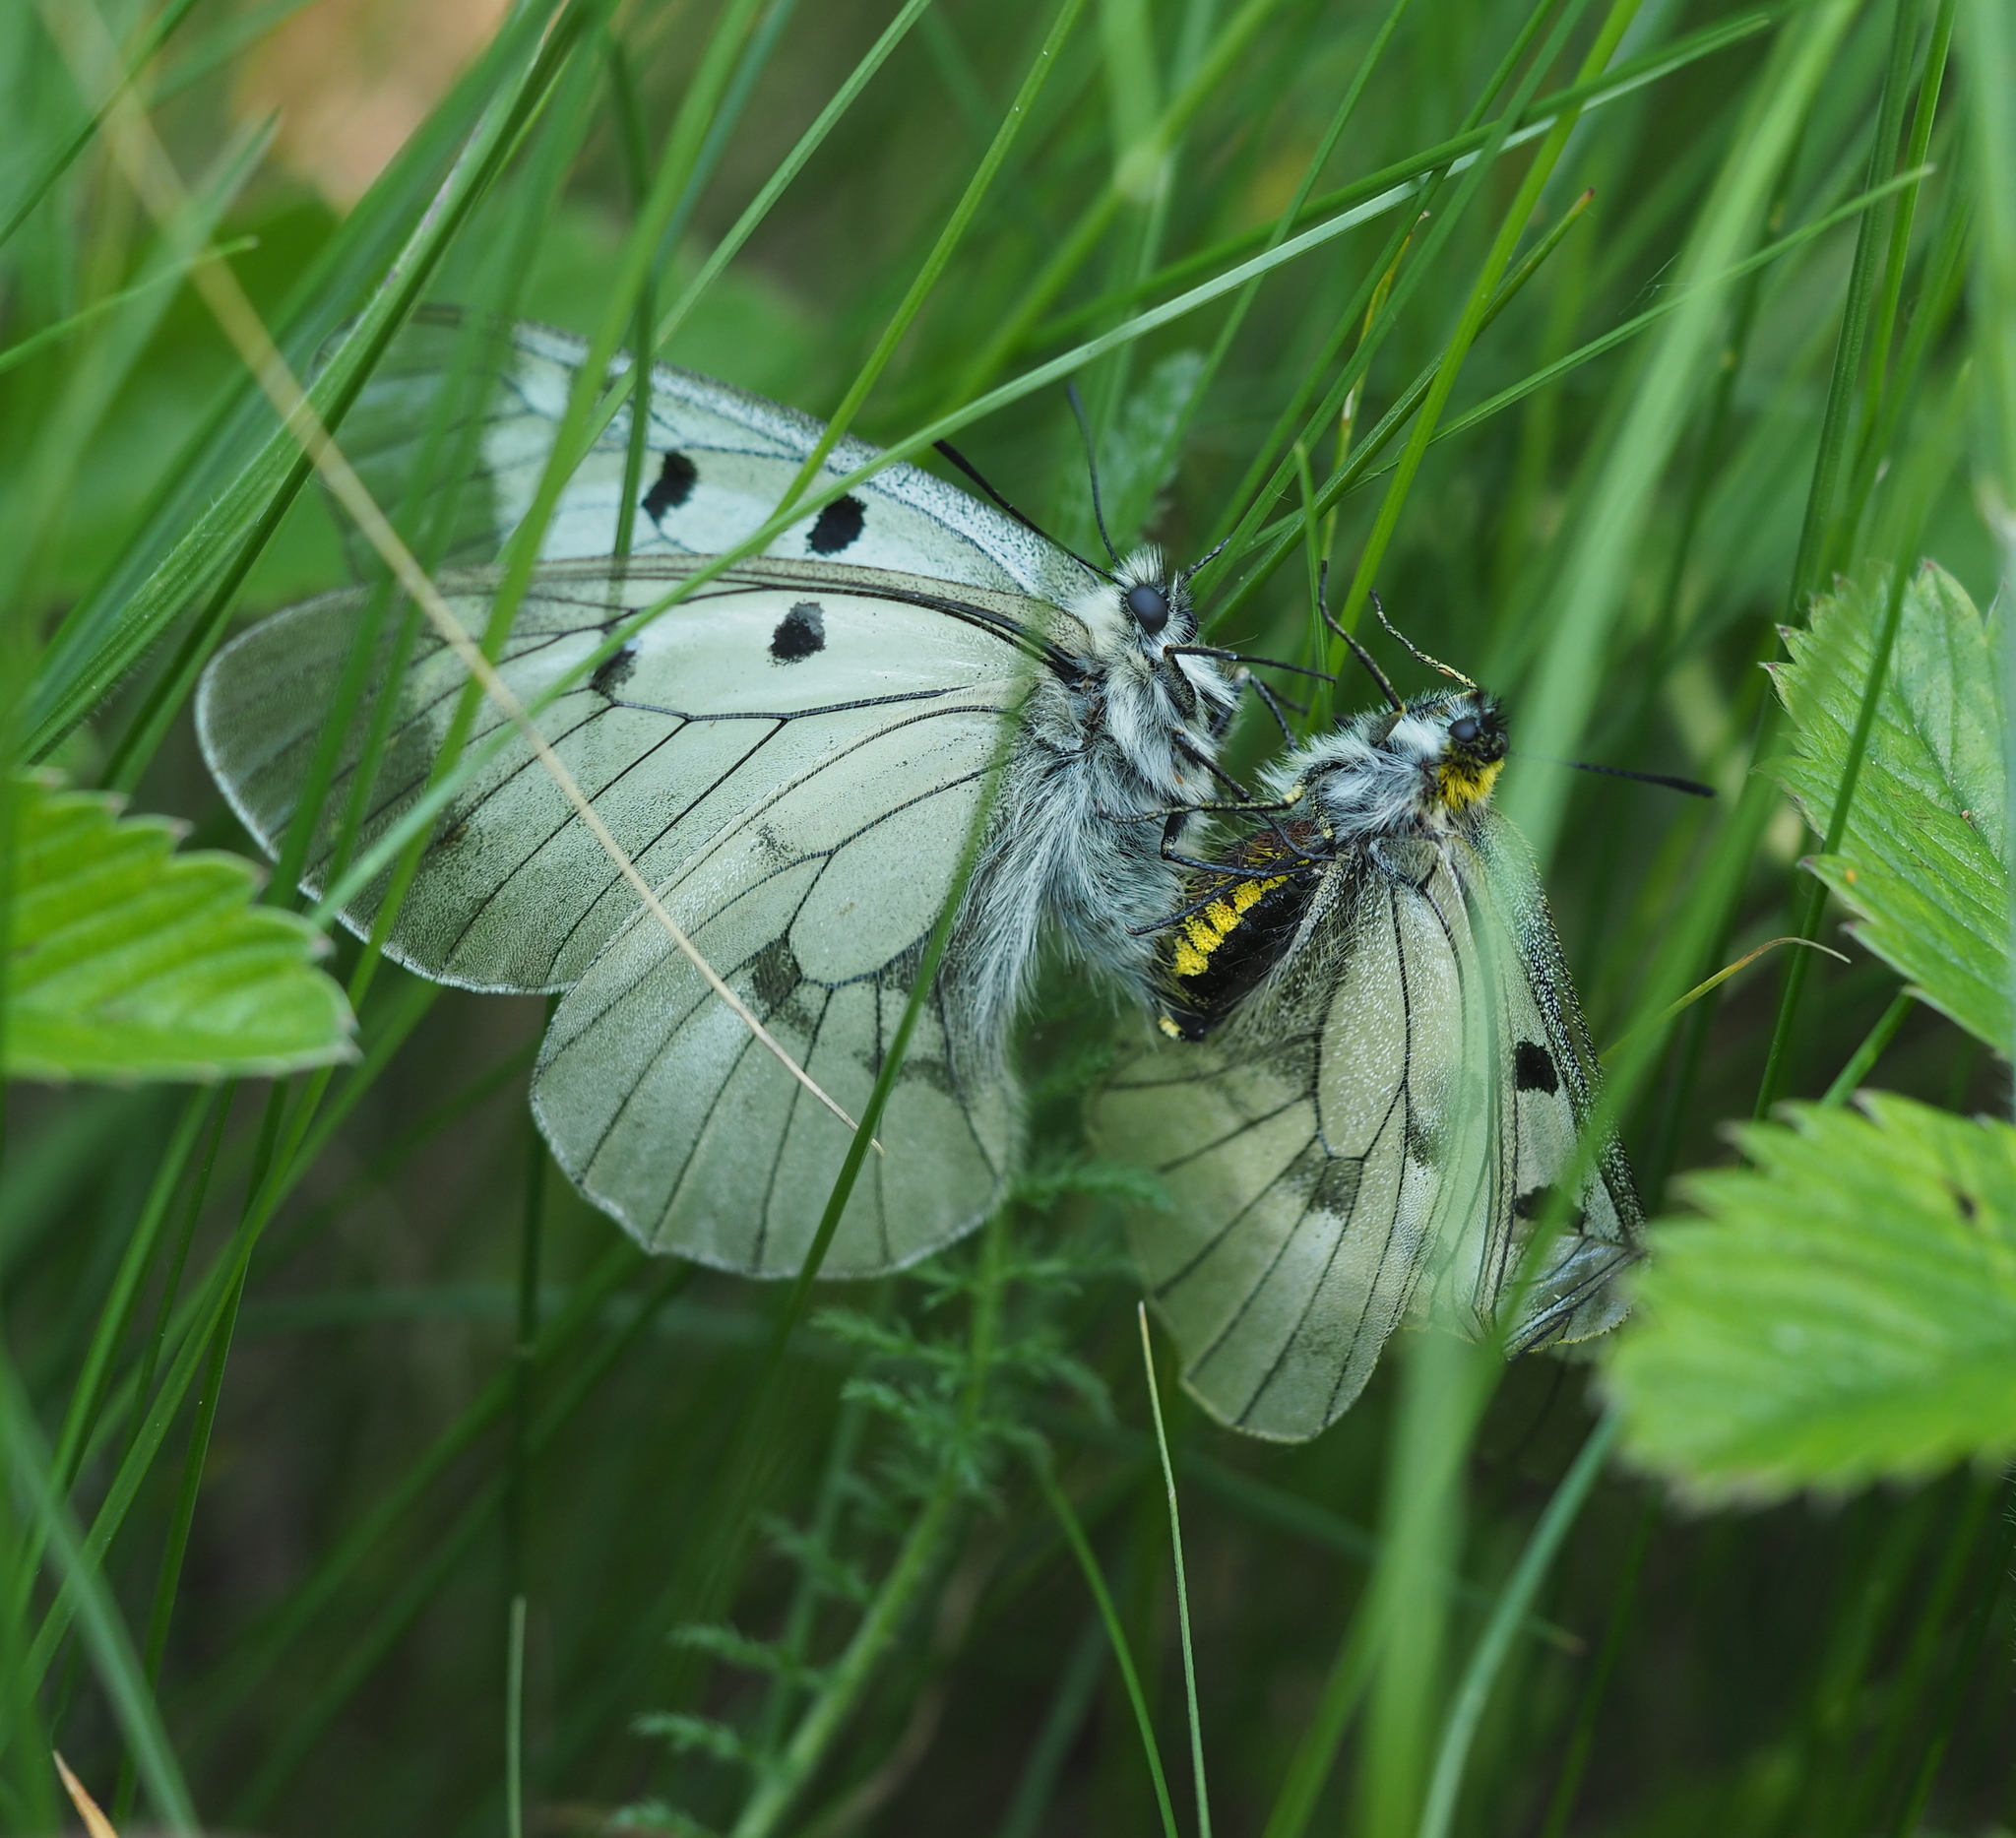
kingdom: Animalia
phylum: Arthropoda
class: Insecta
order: Lepidoptera
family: Papilionidae
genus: Parnassius
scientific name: Parnassius mnemosyne
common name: Clouded apollo
